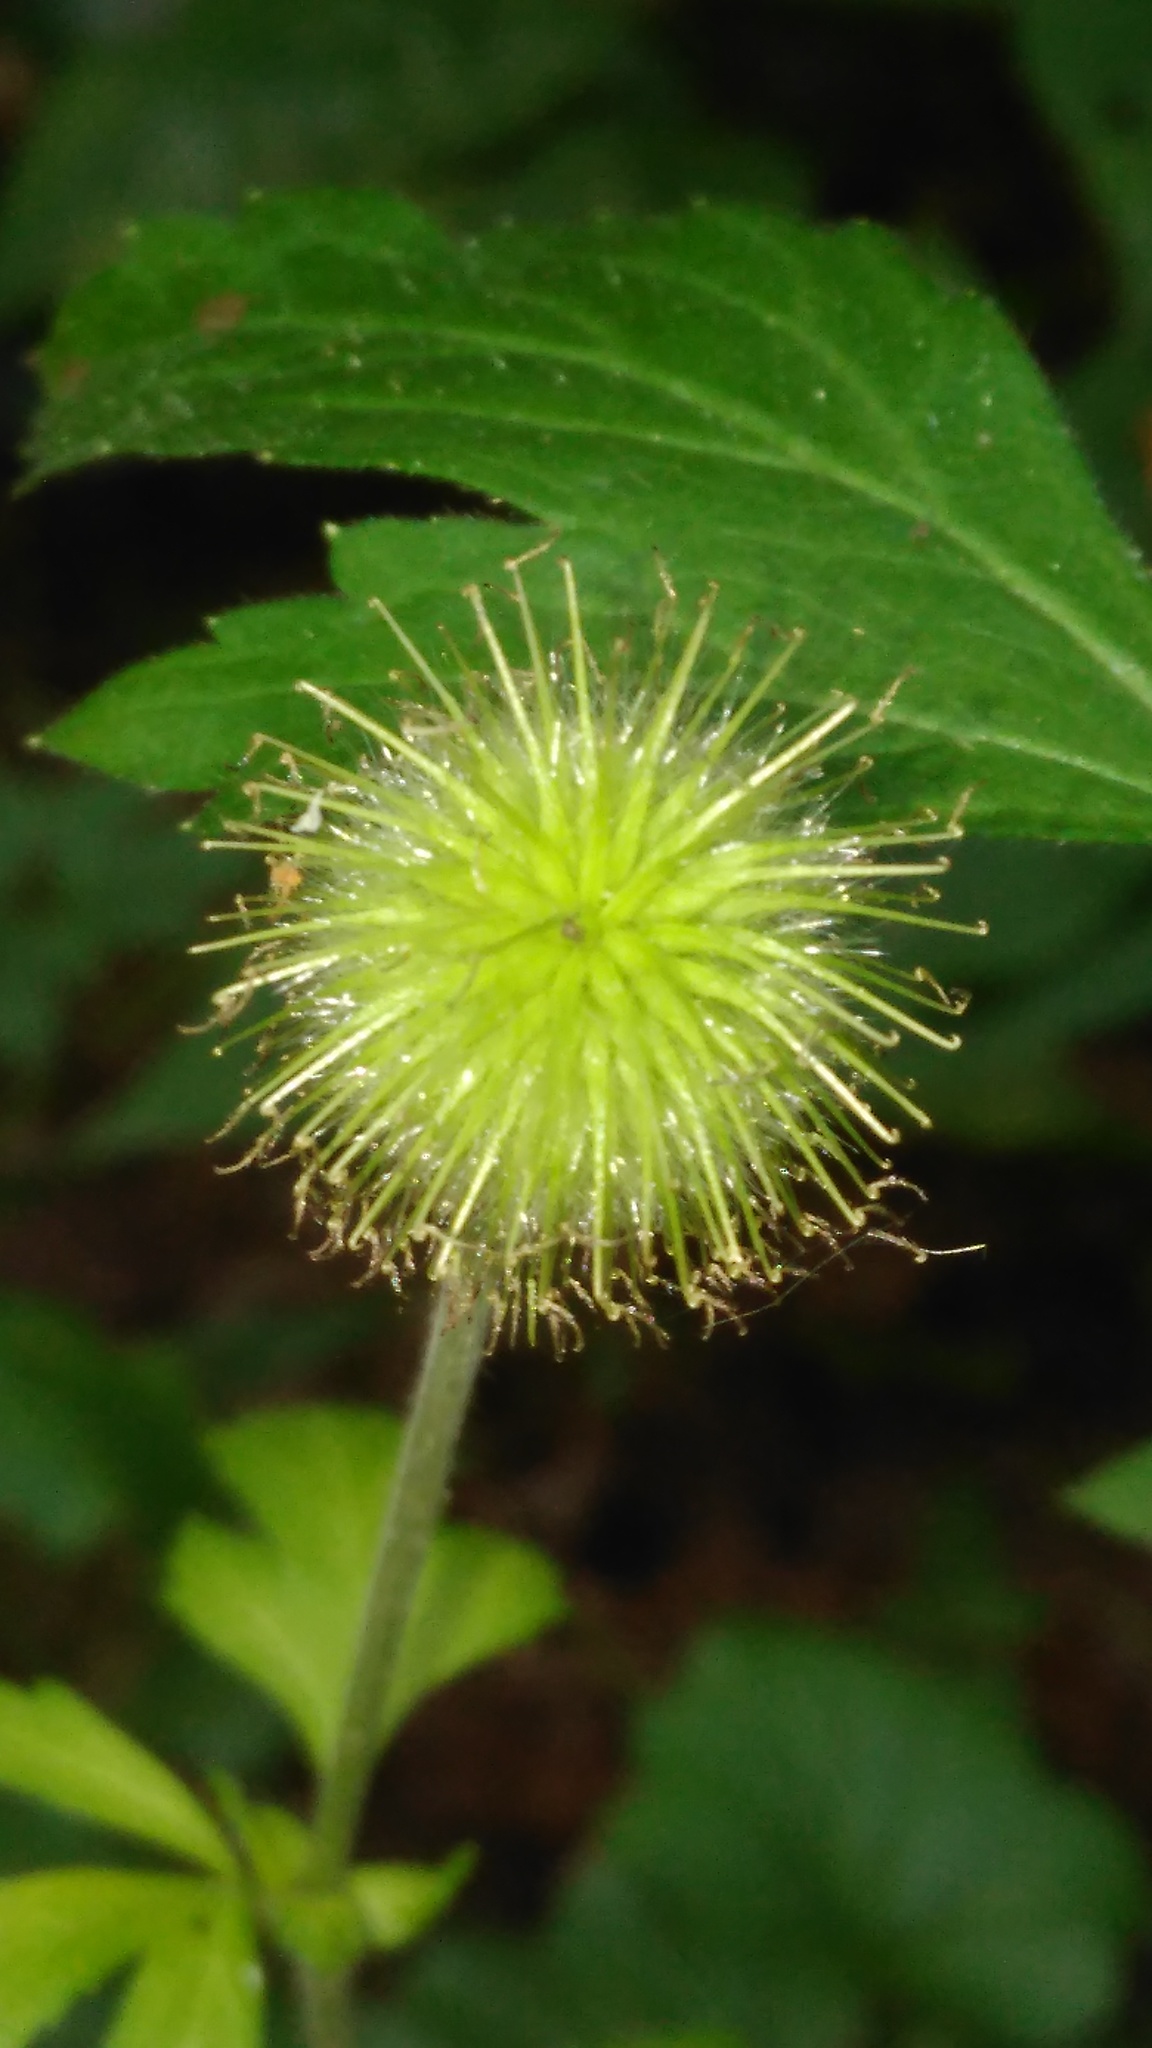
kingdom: Plantae
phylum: Tracheophyta
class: Magnoliopsida
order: Rosales
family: Rosaceae
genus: Geum
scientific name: Geum aleppicum
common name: Yellow avens
